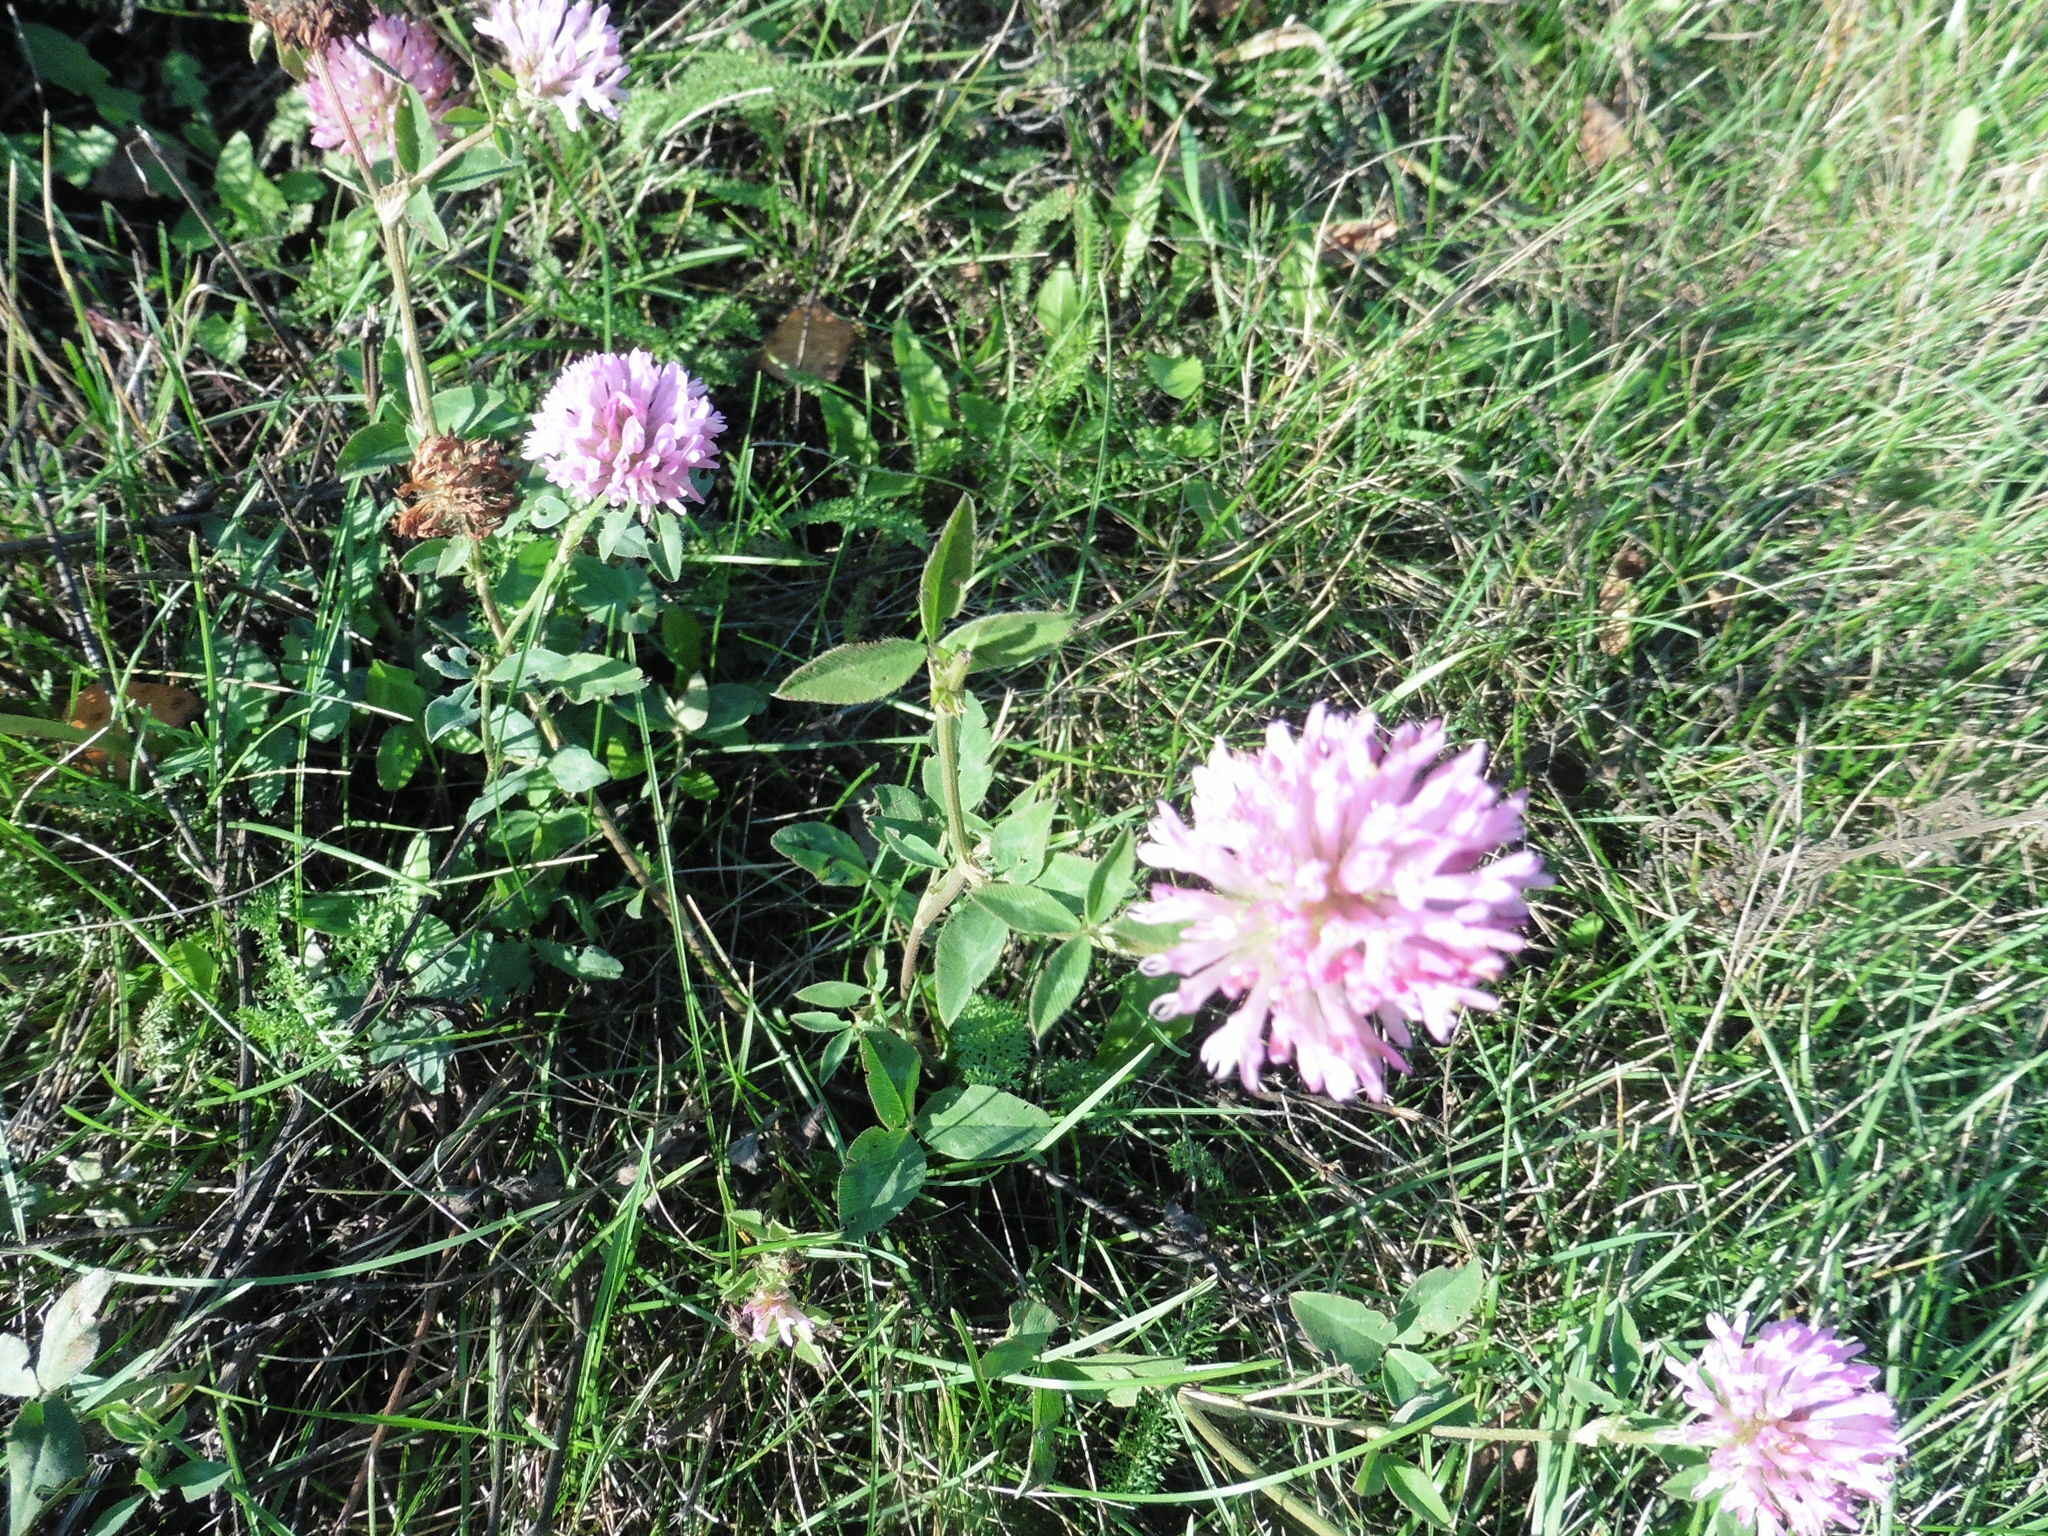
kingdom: Plantae
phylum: Tracheophyta
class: Magnoliopsida
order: Fabales
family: Fabaceae
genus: Trifolium
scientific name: Trifolium pratense
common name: Red clover
